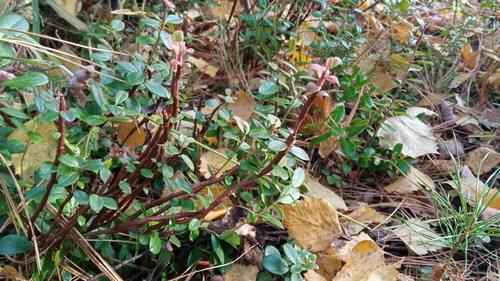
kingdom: Fungi
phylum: Basidiomycota
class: Pucciniomycetes
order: Pucciniales
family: Pucciniastraceae
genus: Calyptospora
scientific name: Calyptospora columnaris
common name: Huckleberry broom rust fungus
